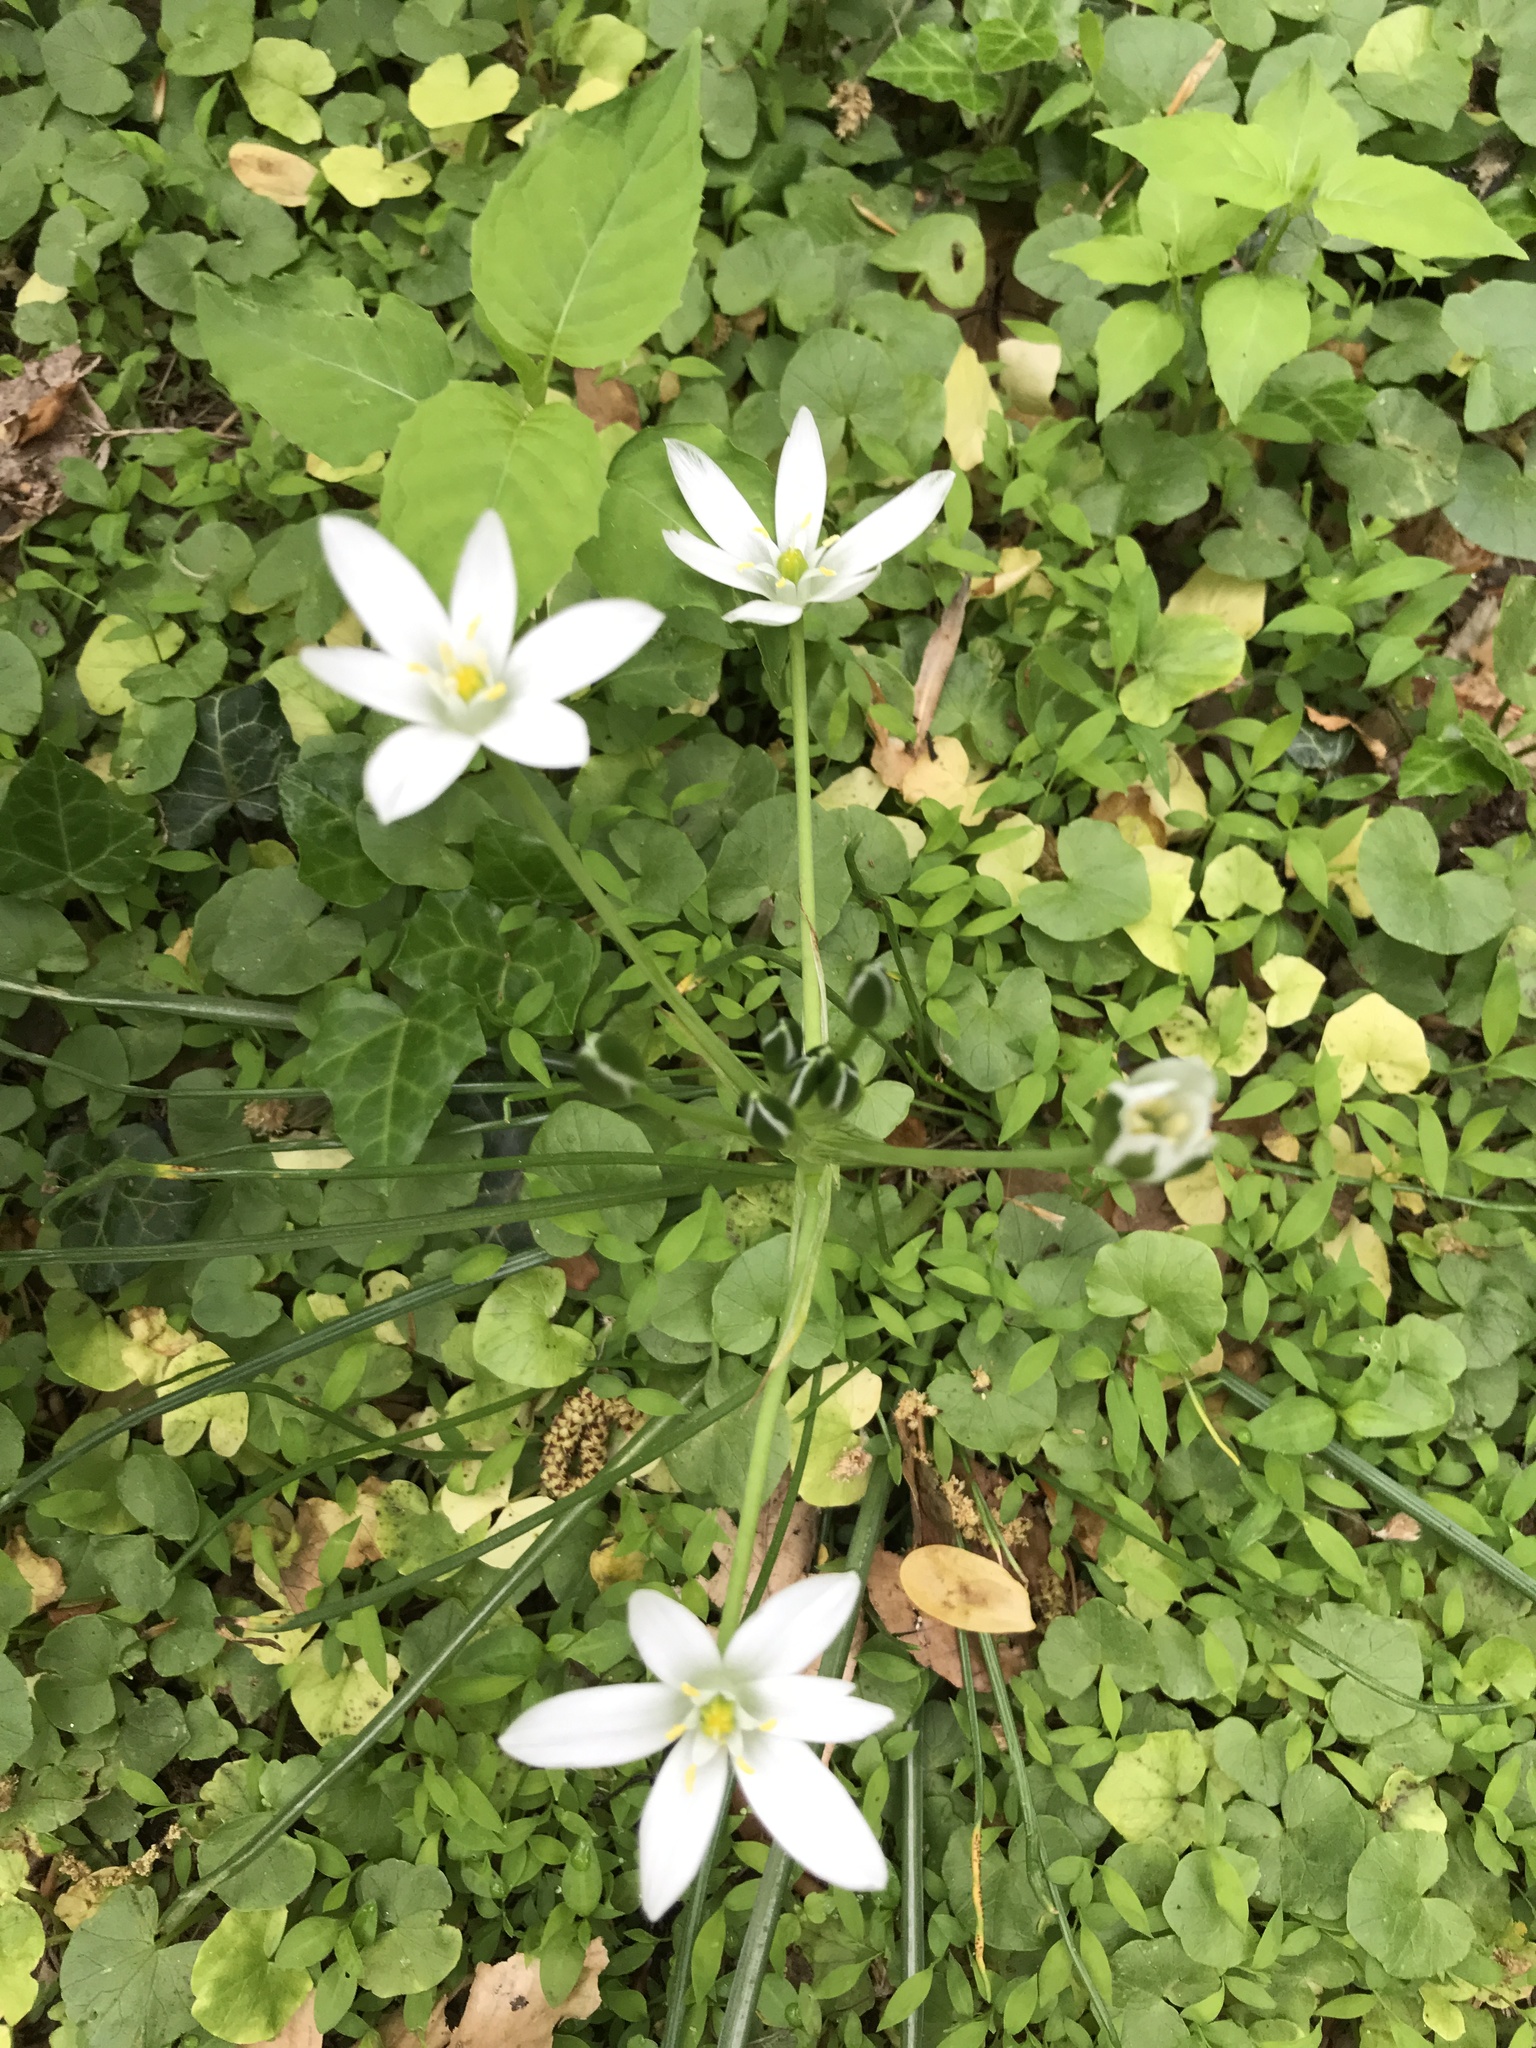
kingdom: Plantae
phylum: Tracheophyta
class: Liliopsida
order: Asparagales
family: Asparagaceae
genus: Ornithogalum
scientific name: Ornithogalum umbellatum
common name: Garden star-of-bethlehem
